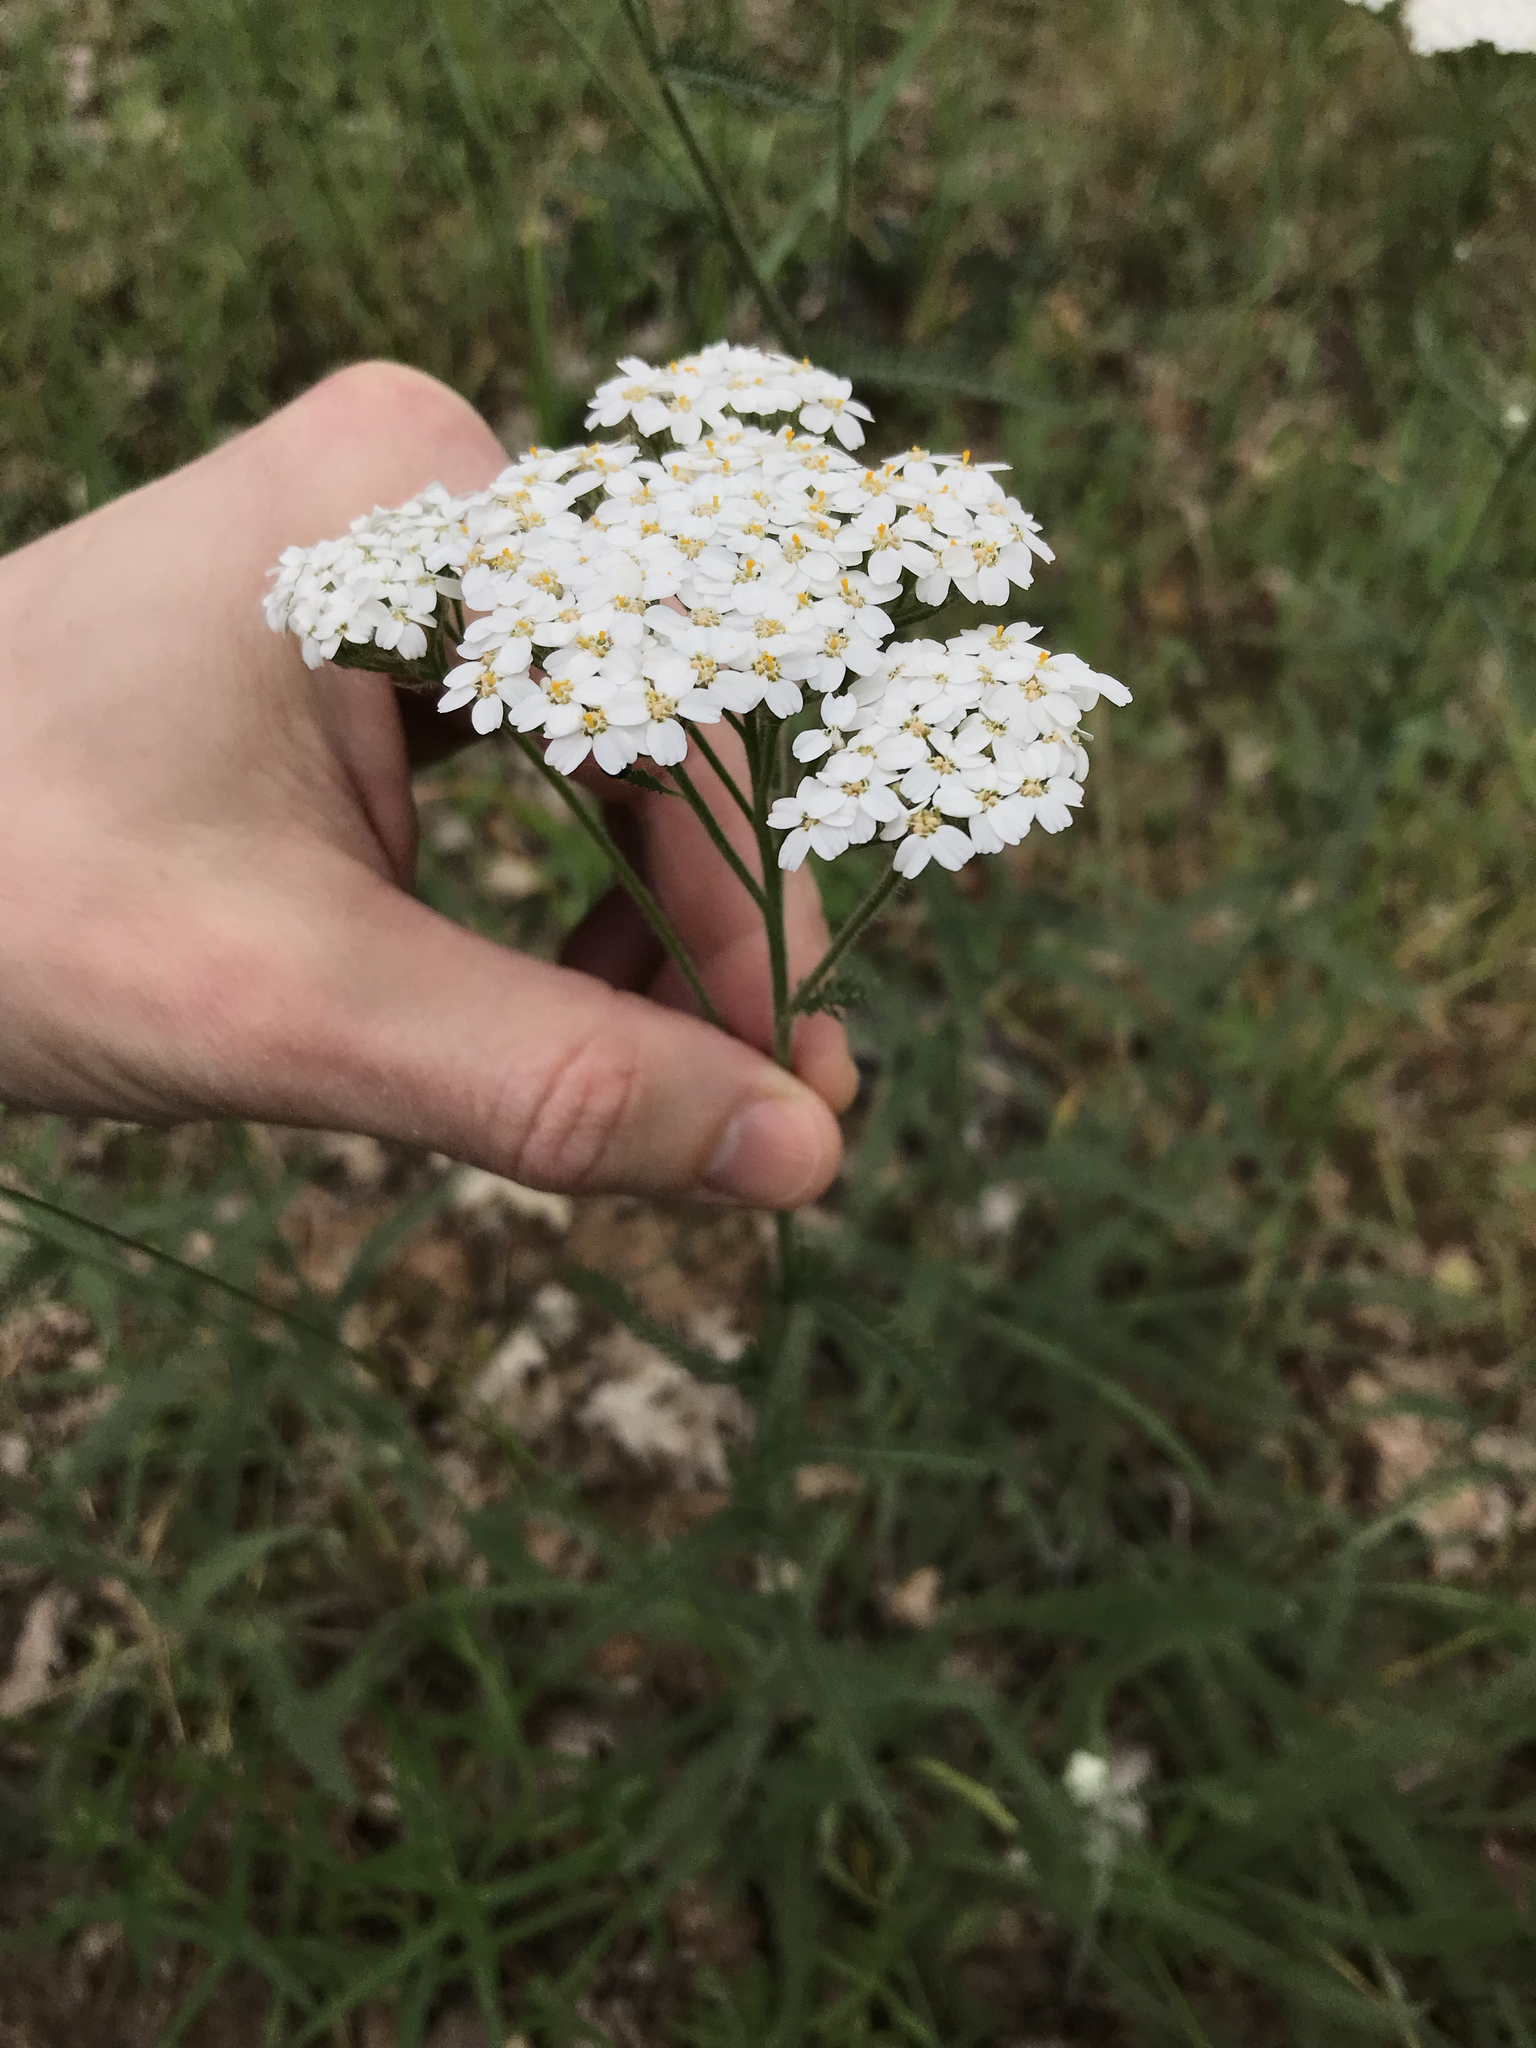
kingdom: Plantae
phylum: Tracheophyta
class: Magnoliopsida
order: Asterales
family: Asteraceae
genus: Achillea
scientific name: Achillea millefolium
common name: Yarrow
